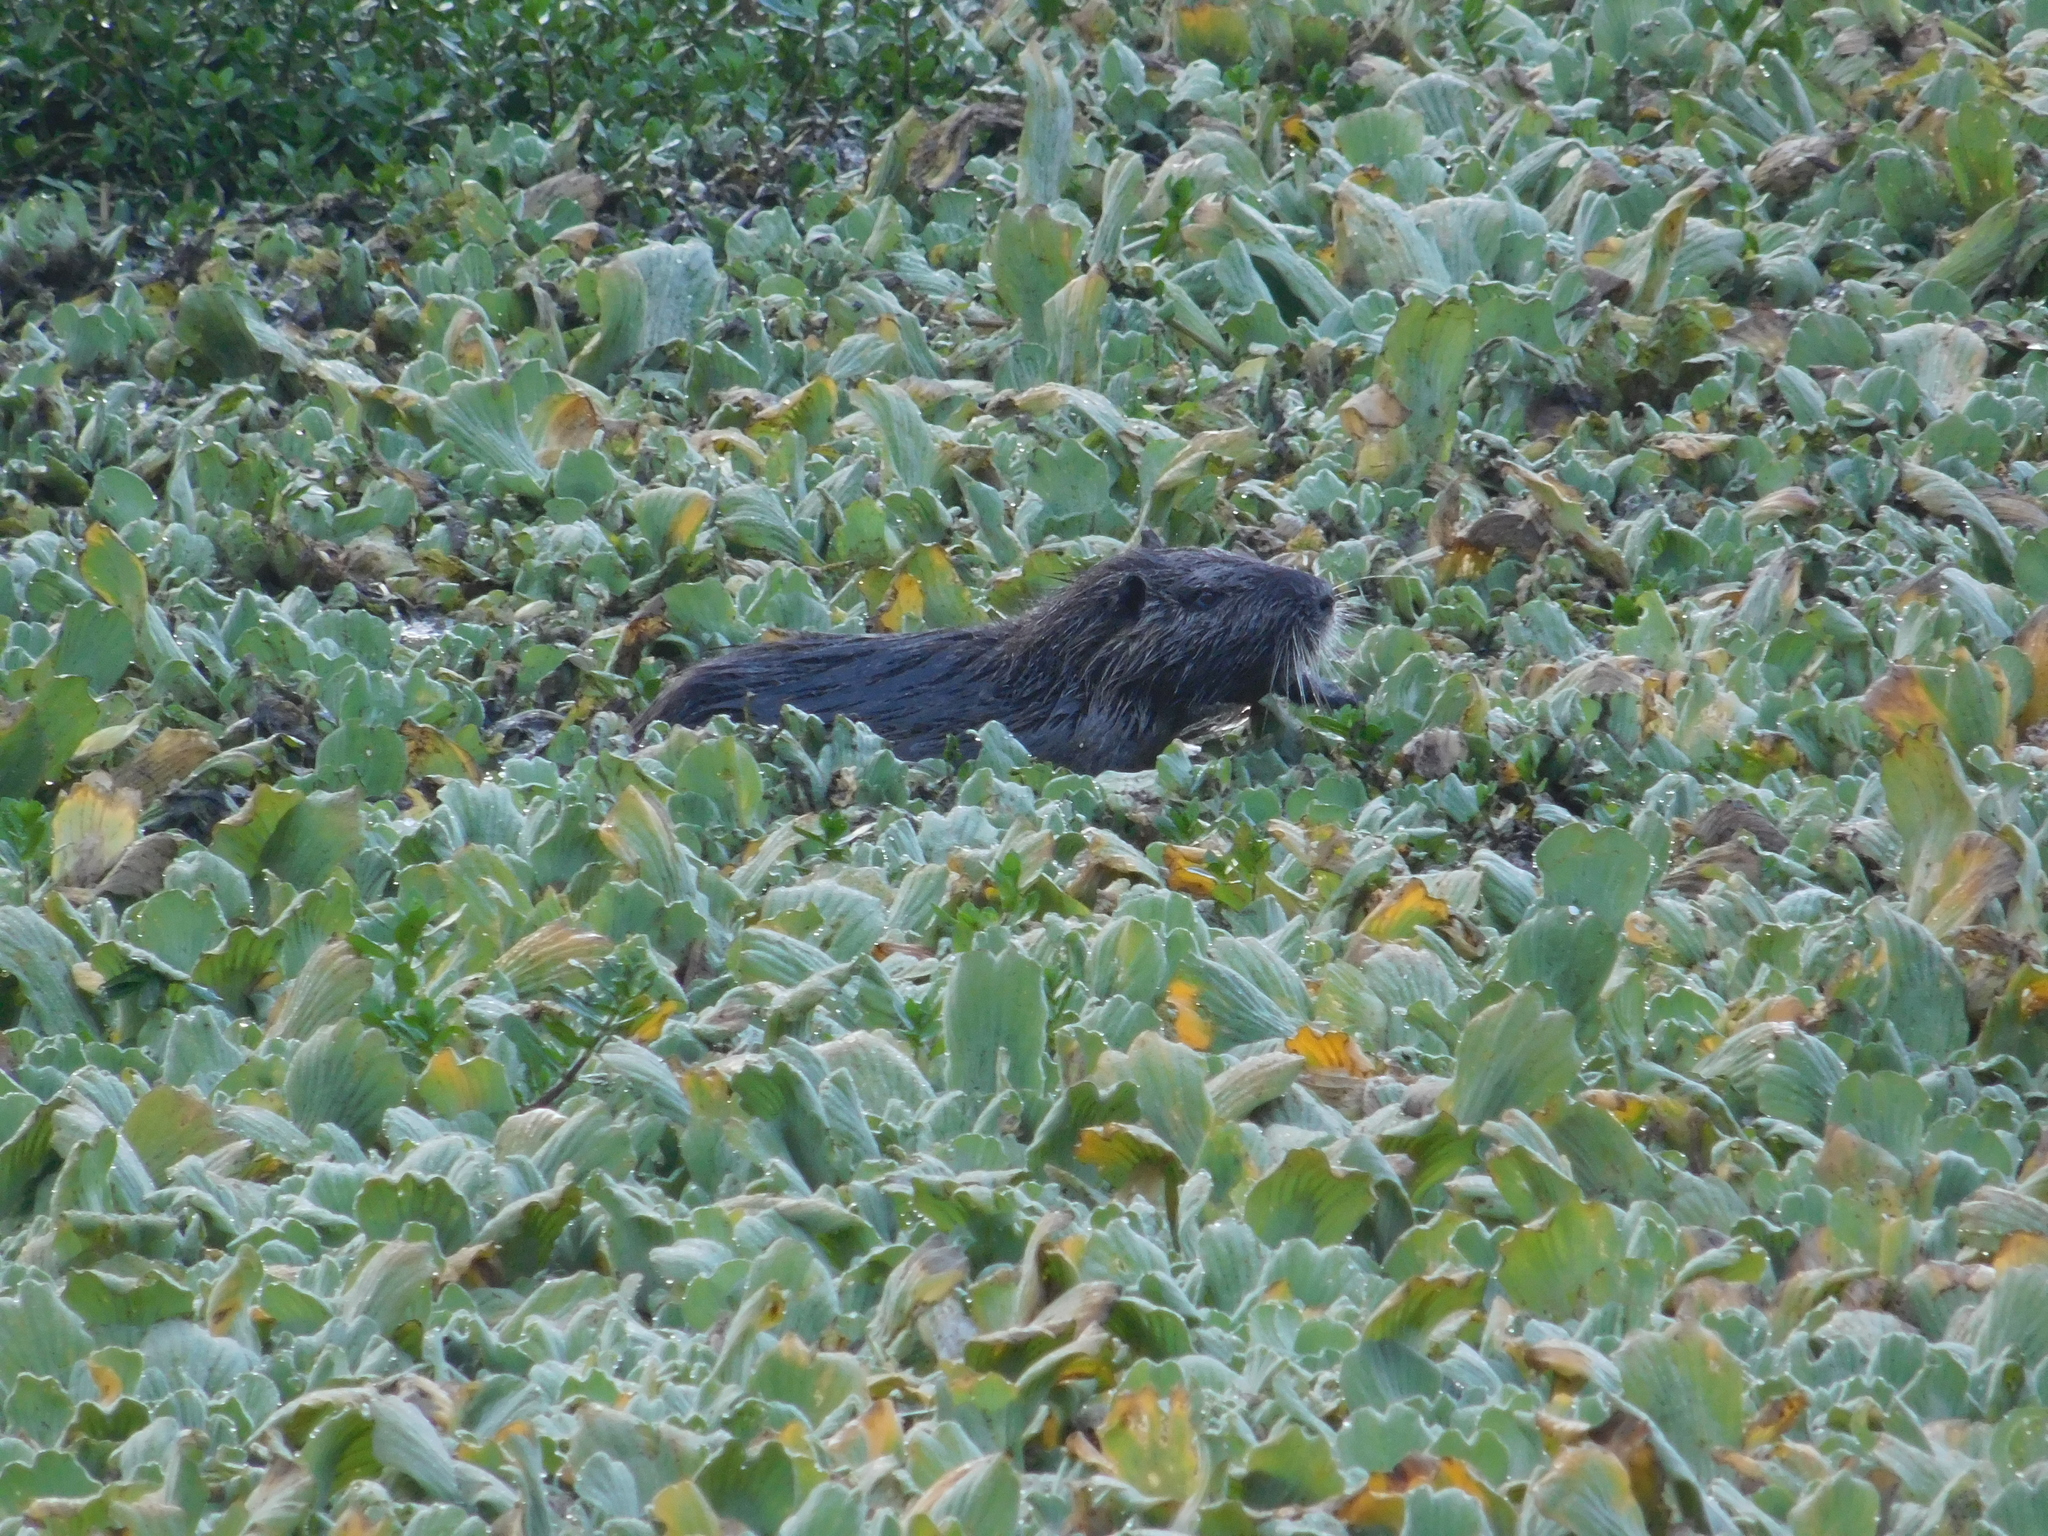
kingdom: Animalia
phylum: Chordata
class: Mammalia
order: Rodentia
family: Myocastoridae
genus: Myocastor
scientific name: Myocastor coypus
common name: Coypu
